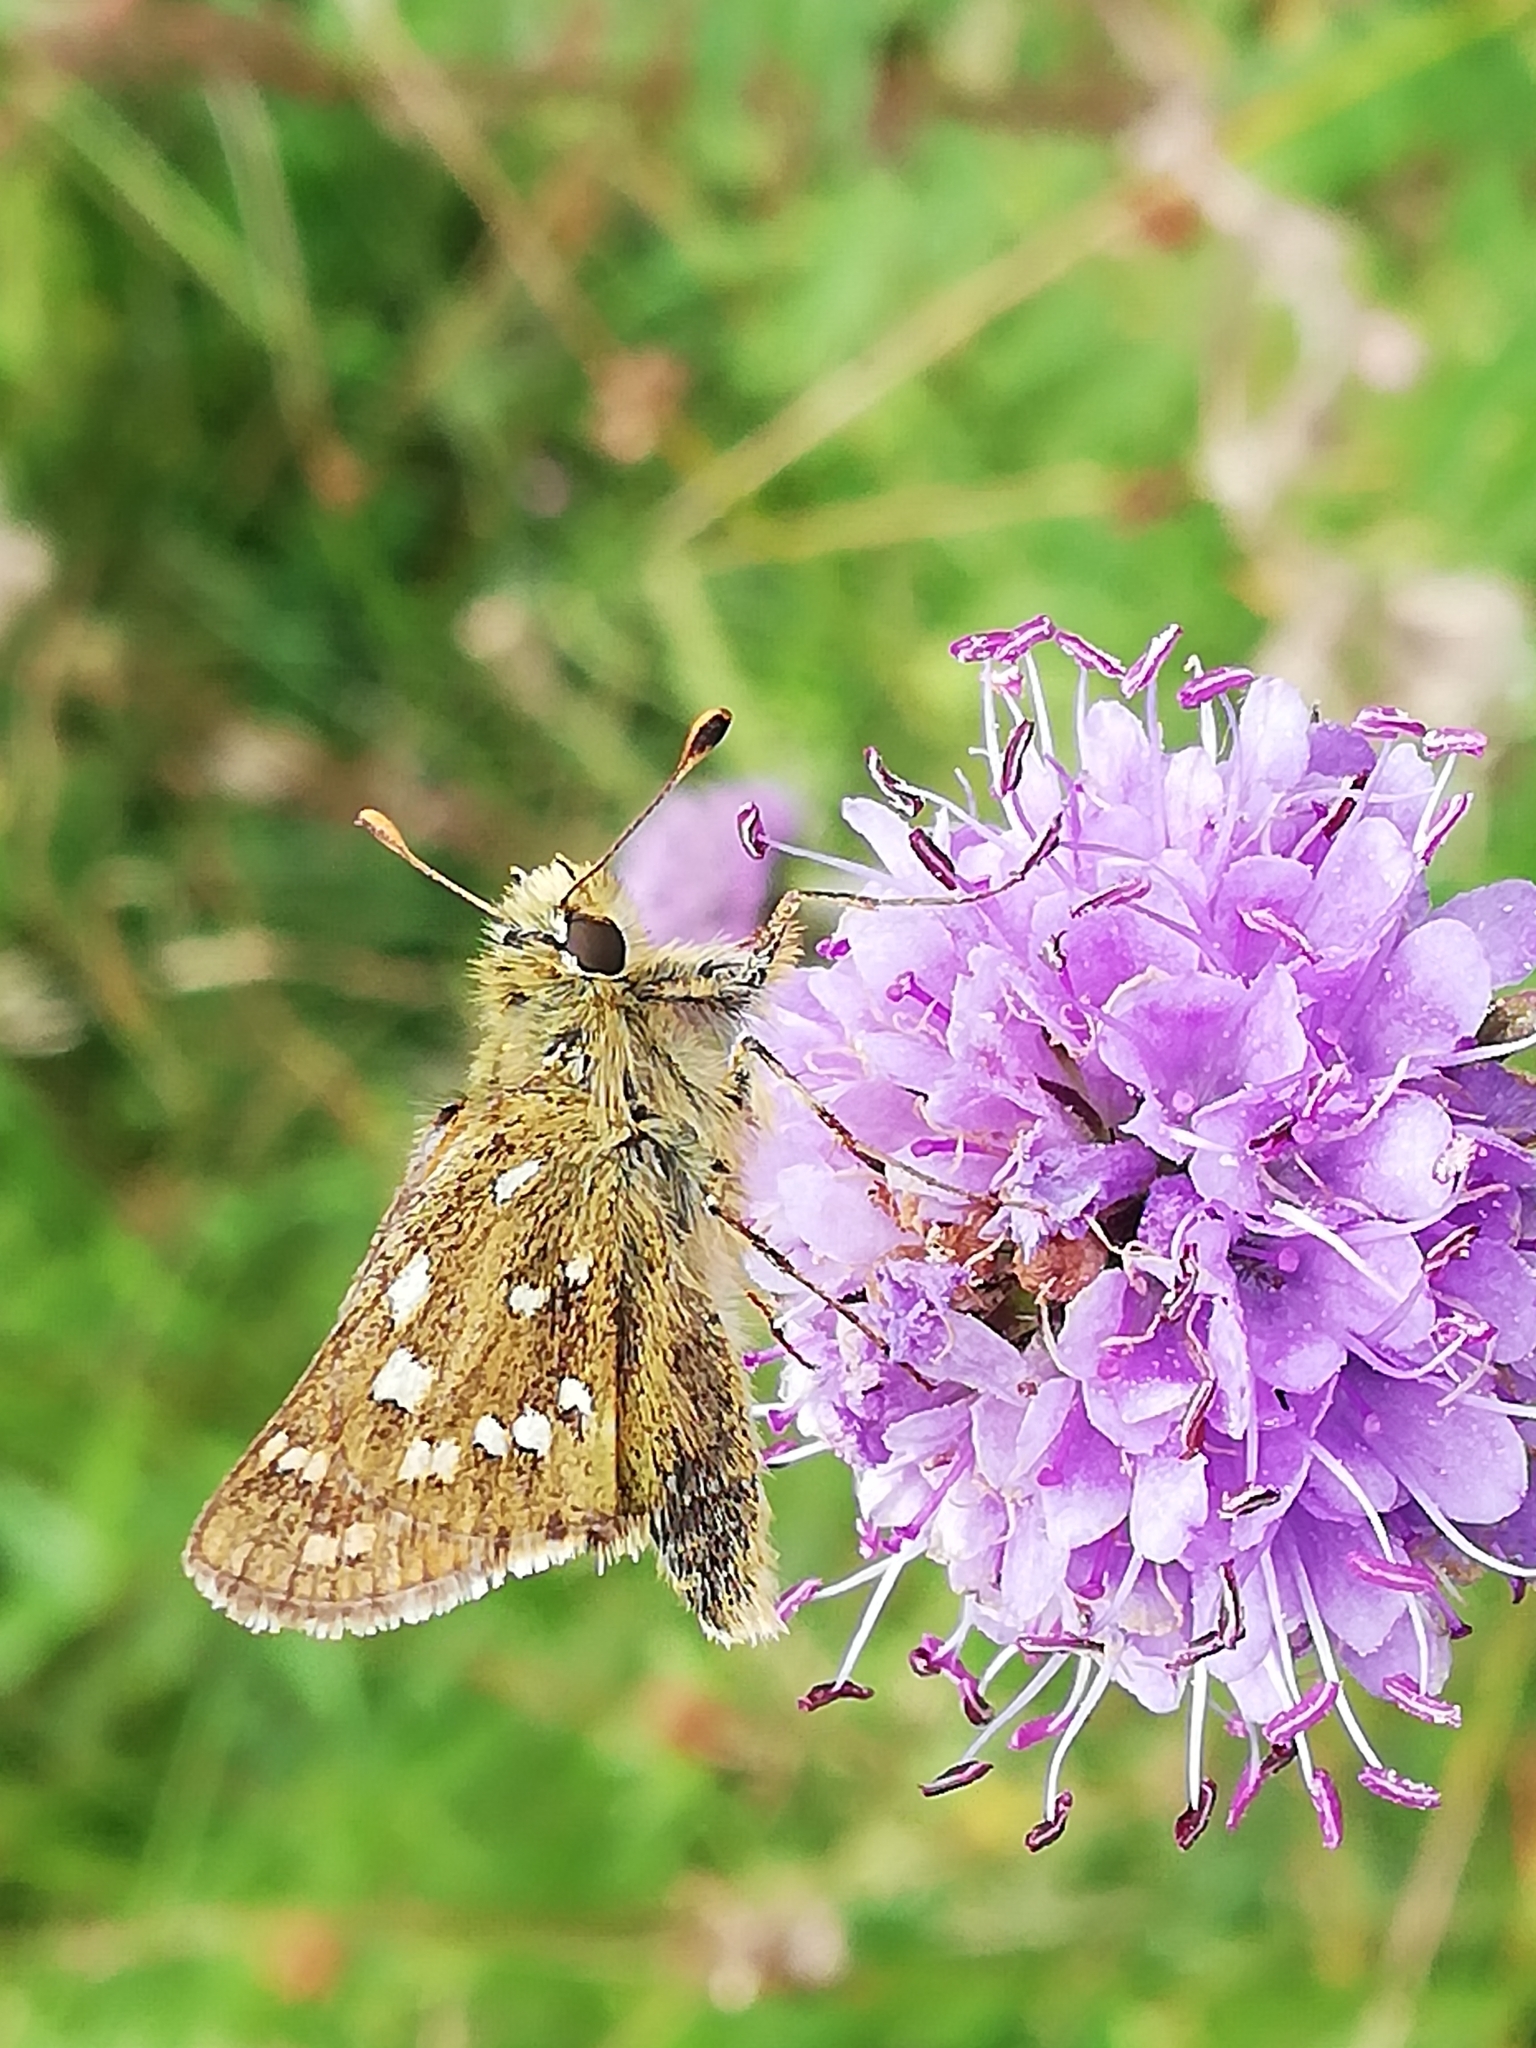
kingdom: Animalia
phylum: Arthropoda
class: Insecta
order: Lepidoptera
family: Hesperiidae
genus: Hesperia
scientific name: Hesperia comma
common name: Common branded skipper
